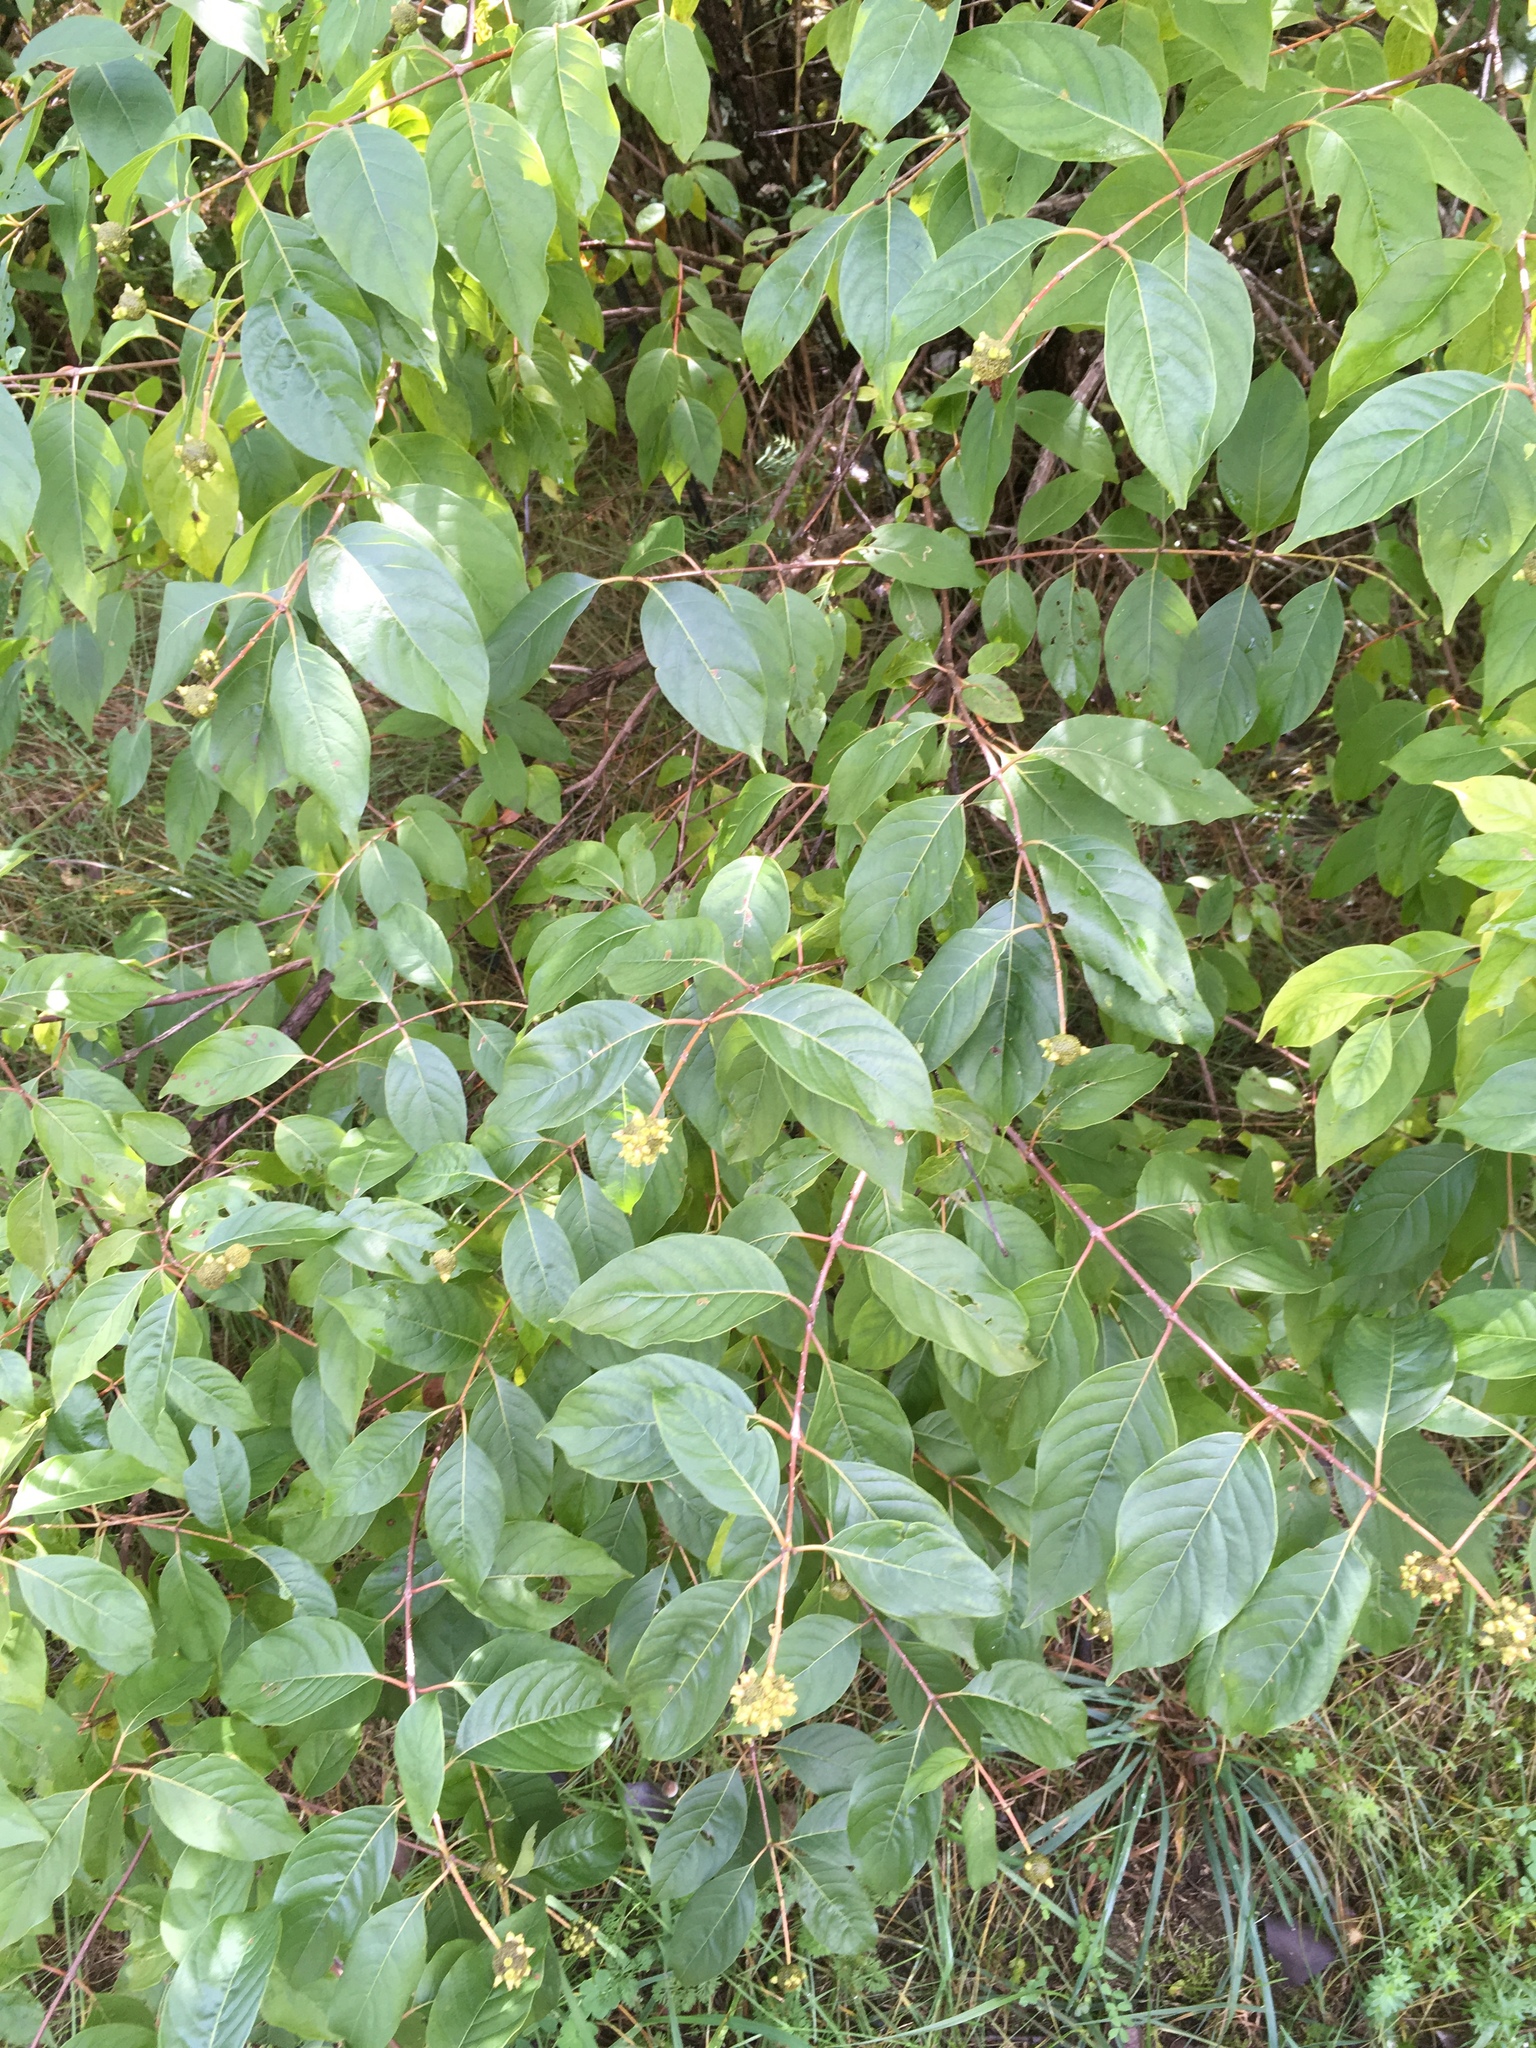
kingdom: Plantae
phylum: Tracheophyta
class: Magnoliopsida
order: Gentianales
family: Rubiaceae
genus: Cephalanthus
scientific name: Cephalanthus occidentalis
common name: Button-willow
